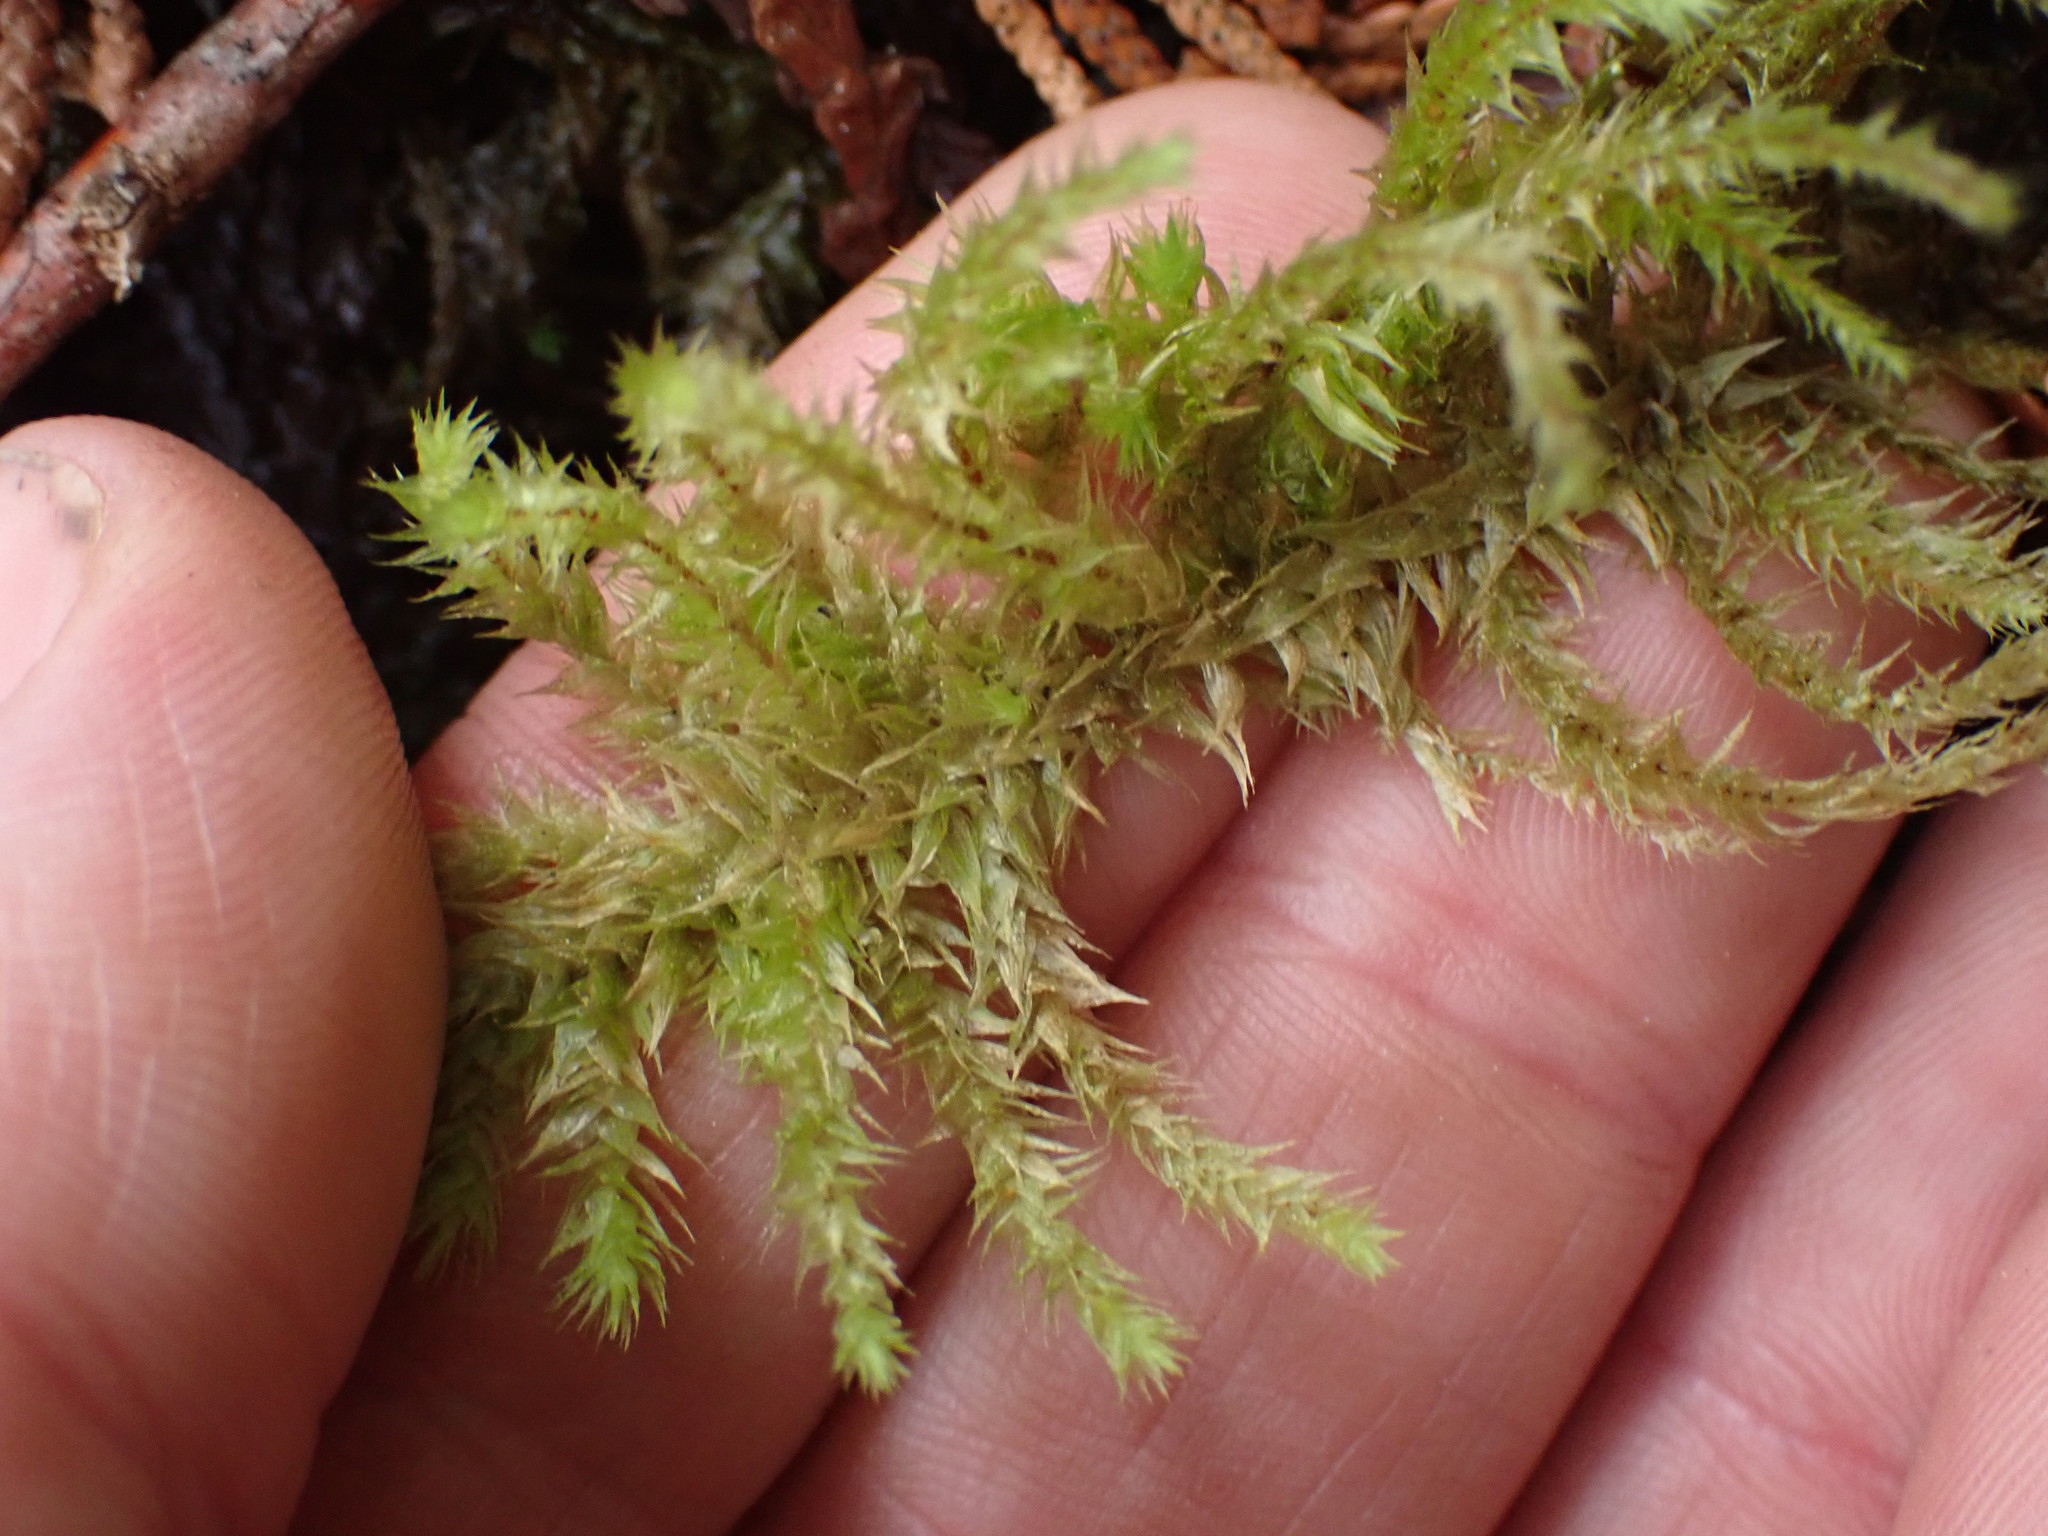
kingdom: Plantae
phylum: Bryophyta
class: Bryopsida
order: Hypnales
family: Hylocomiaceae
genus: Hylocomiadelphus
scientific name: Hylocomiadelphus triquetrus
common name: Rough goose neck moss
